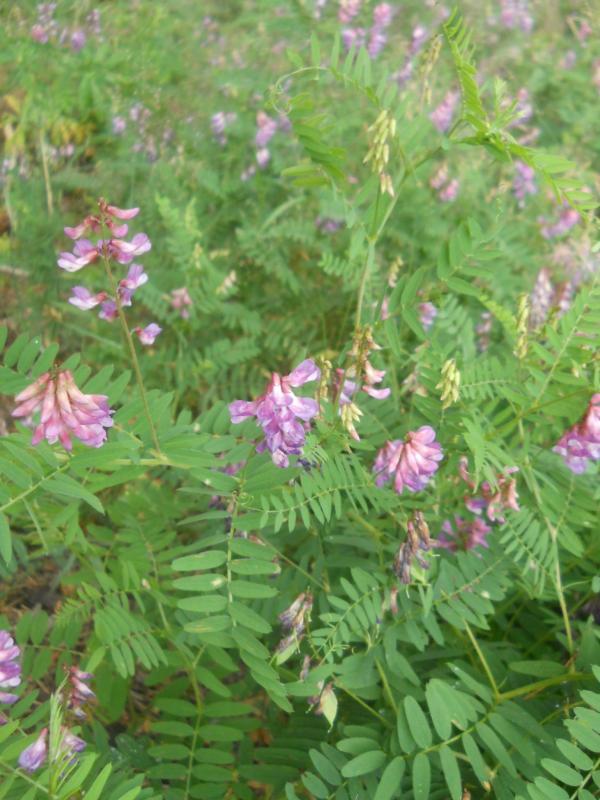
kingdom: Plantae
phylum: Tracheophyta
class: Magnoliopsida
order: Fabales
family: Fabaceae
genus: Vicia
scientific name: Vicia cassubica
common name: Danzig vetch
